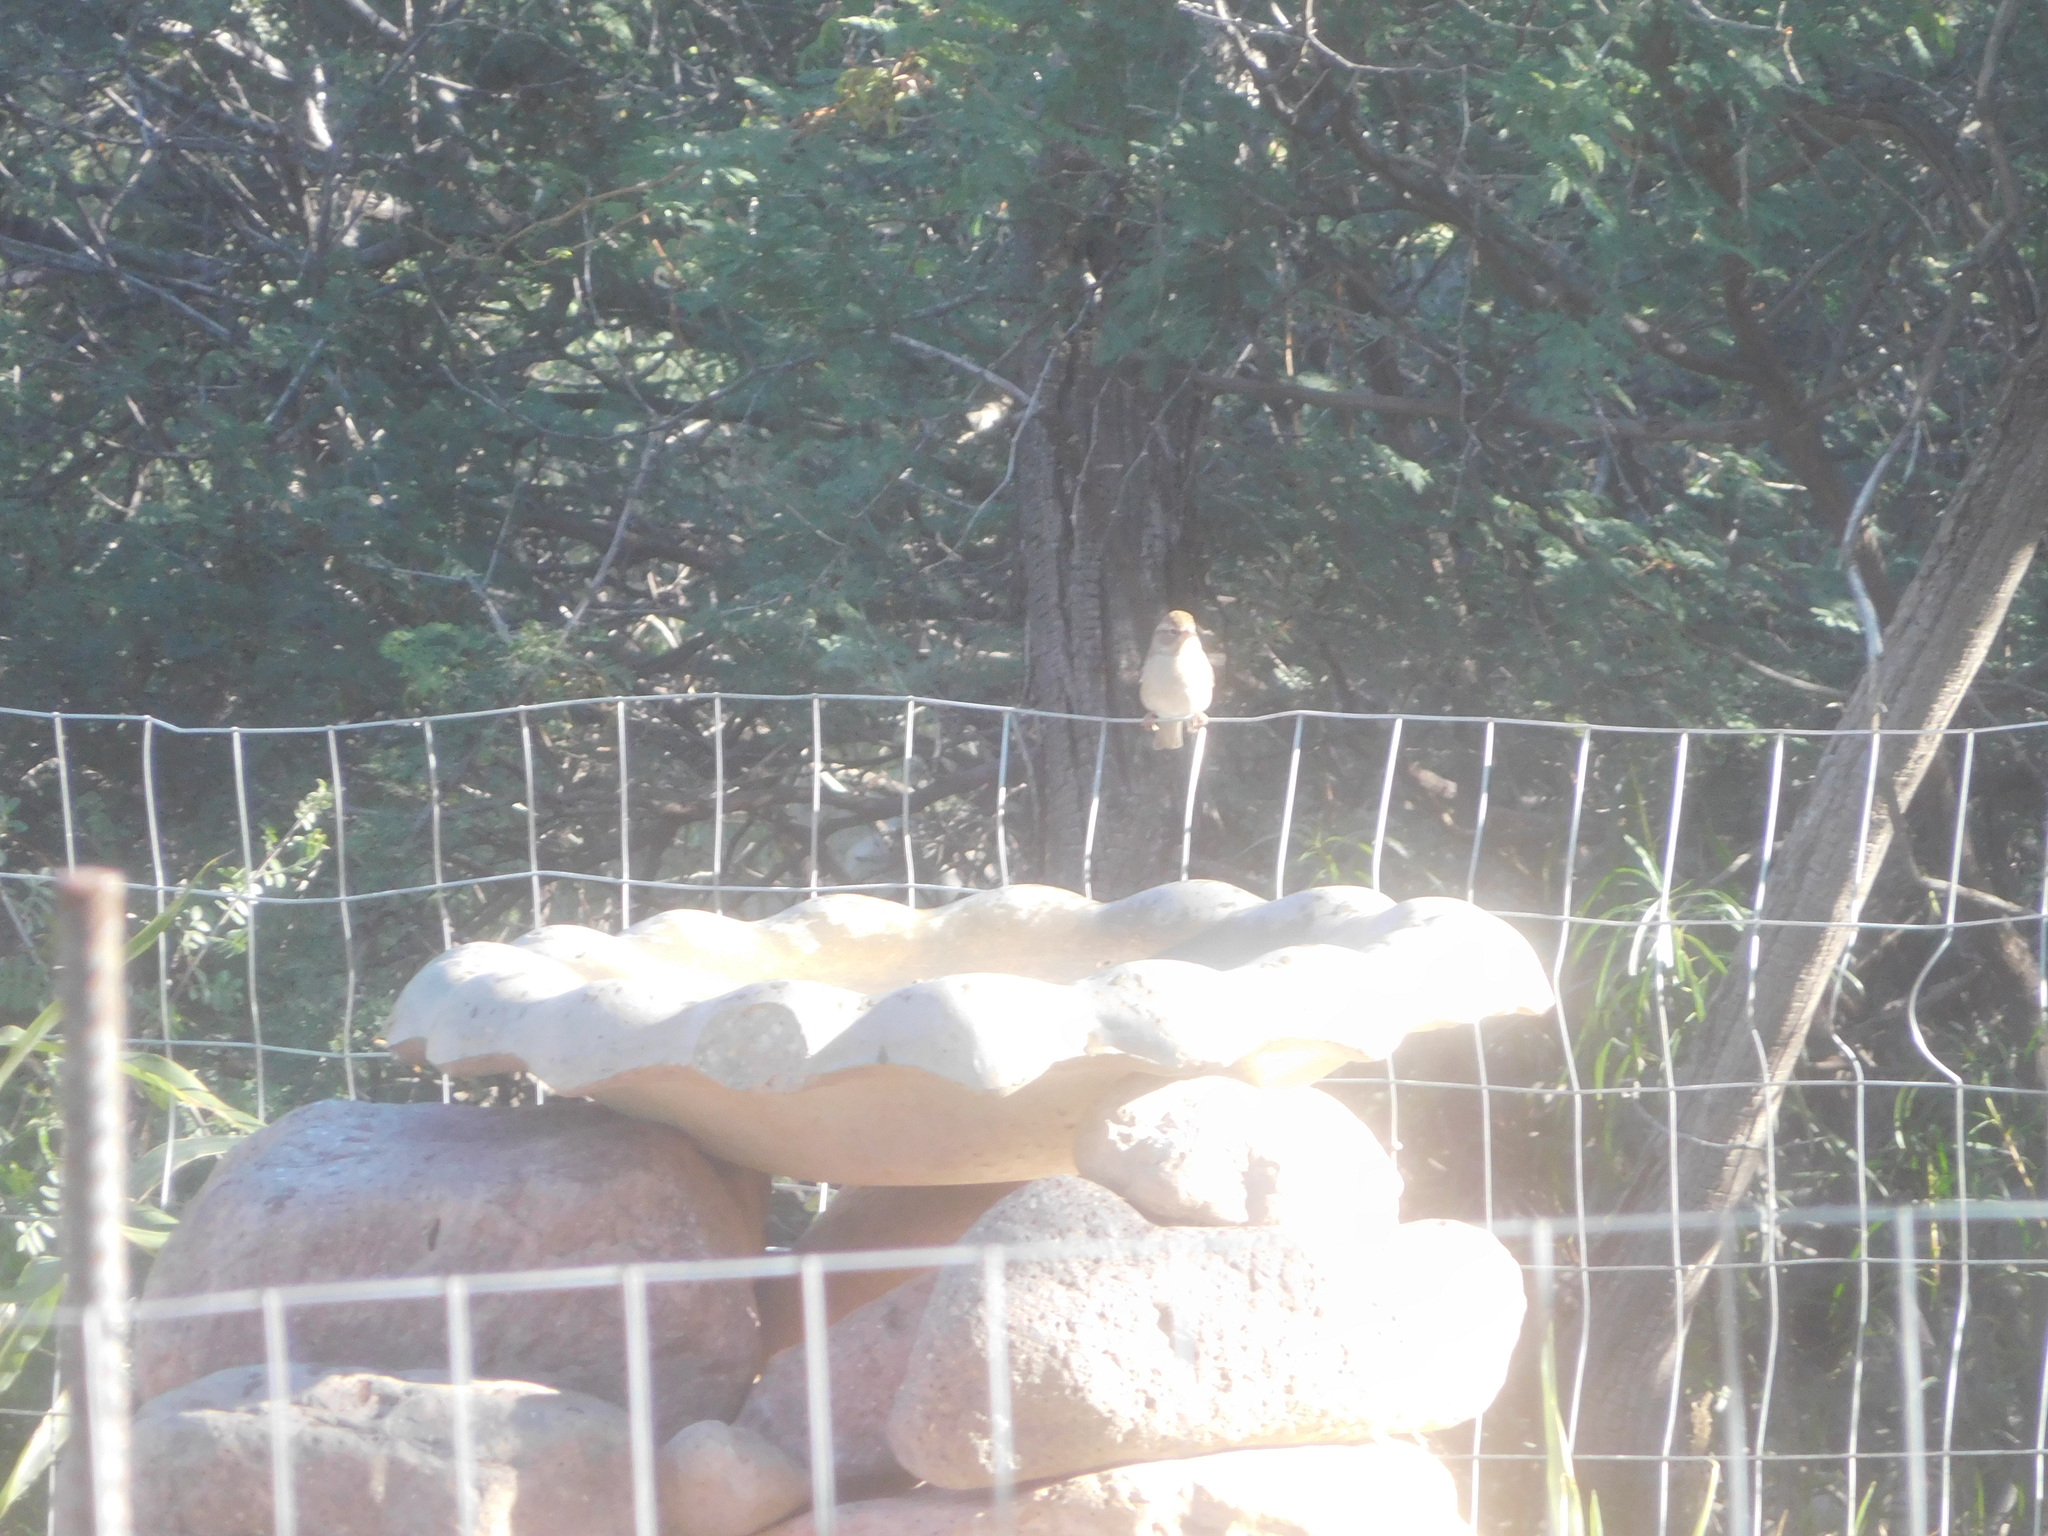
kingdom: Animalia
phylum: Chordata
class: Aves
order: Passeriformes
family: Passerellidae
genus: Spizella
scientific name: Spizella passerina
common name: Chipping sparrow
